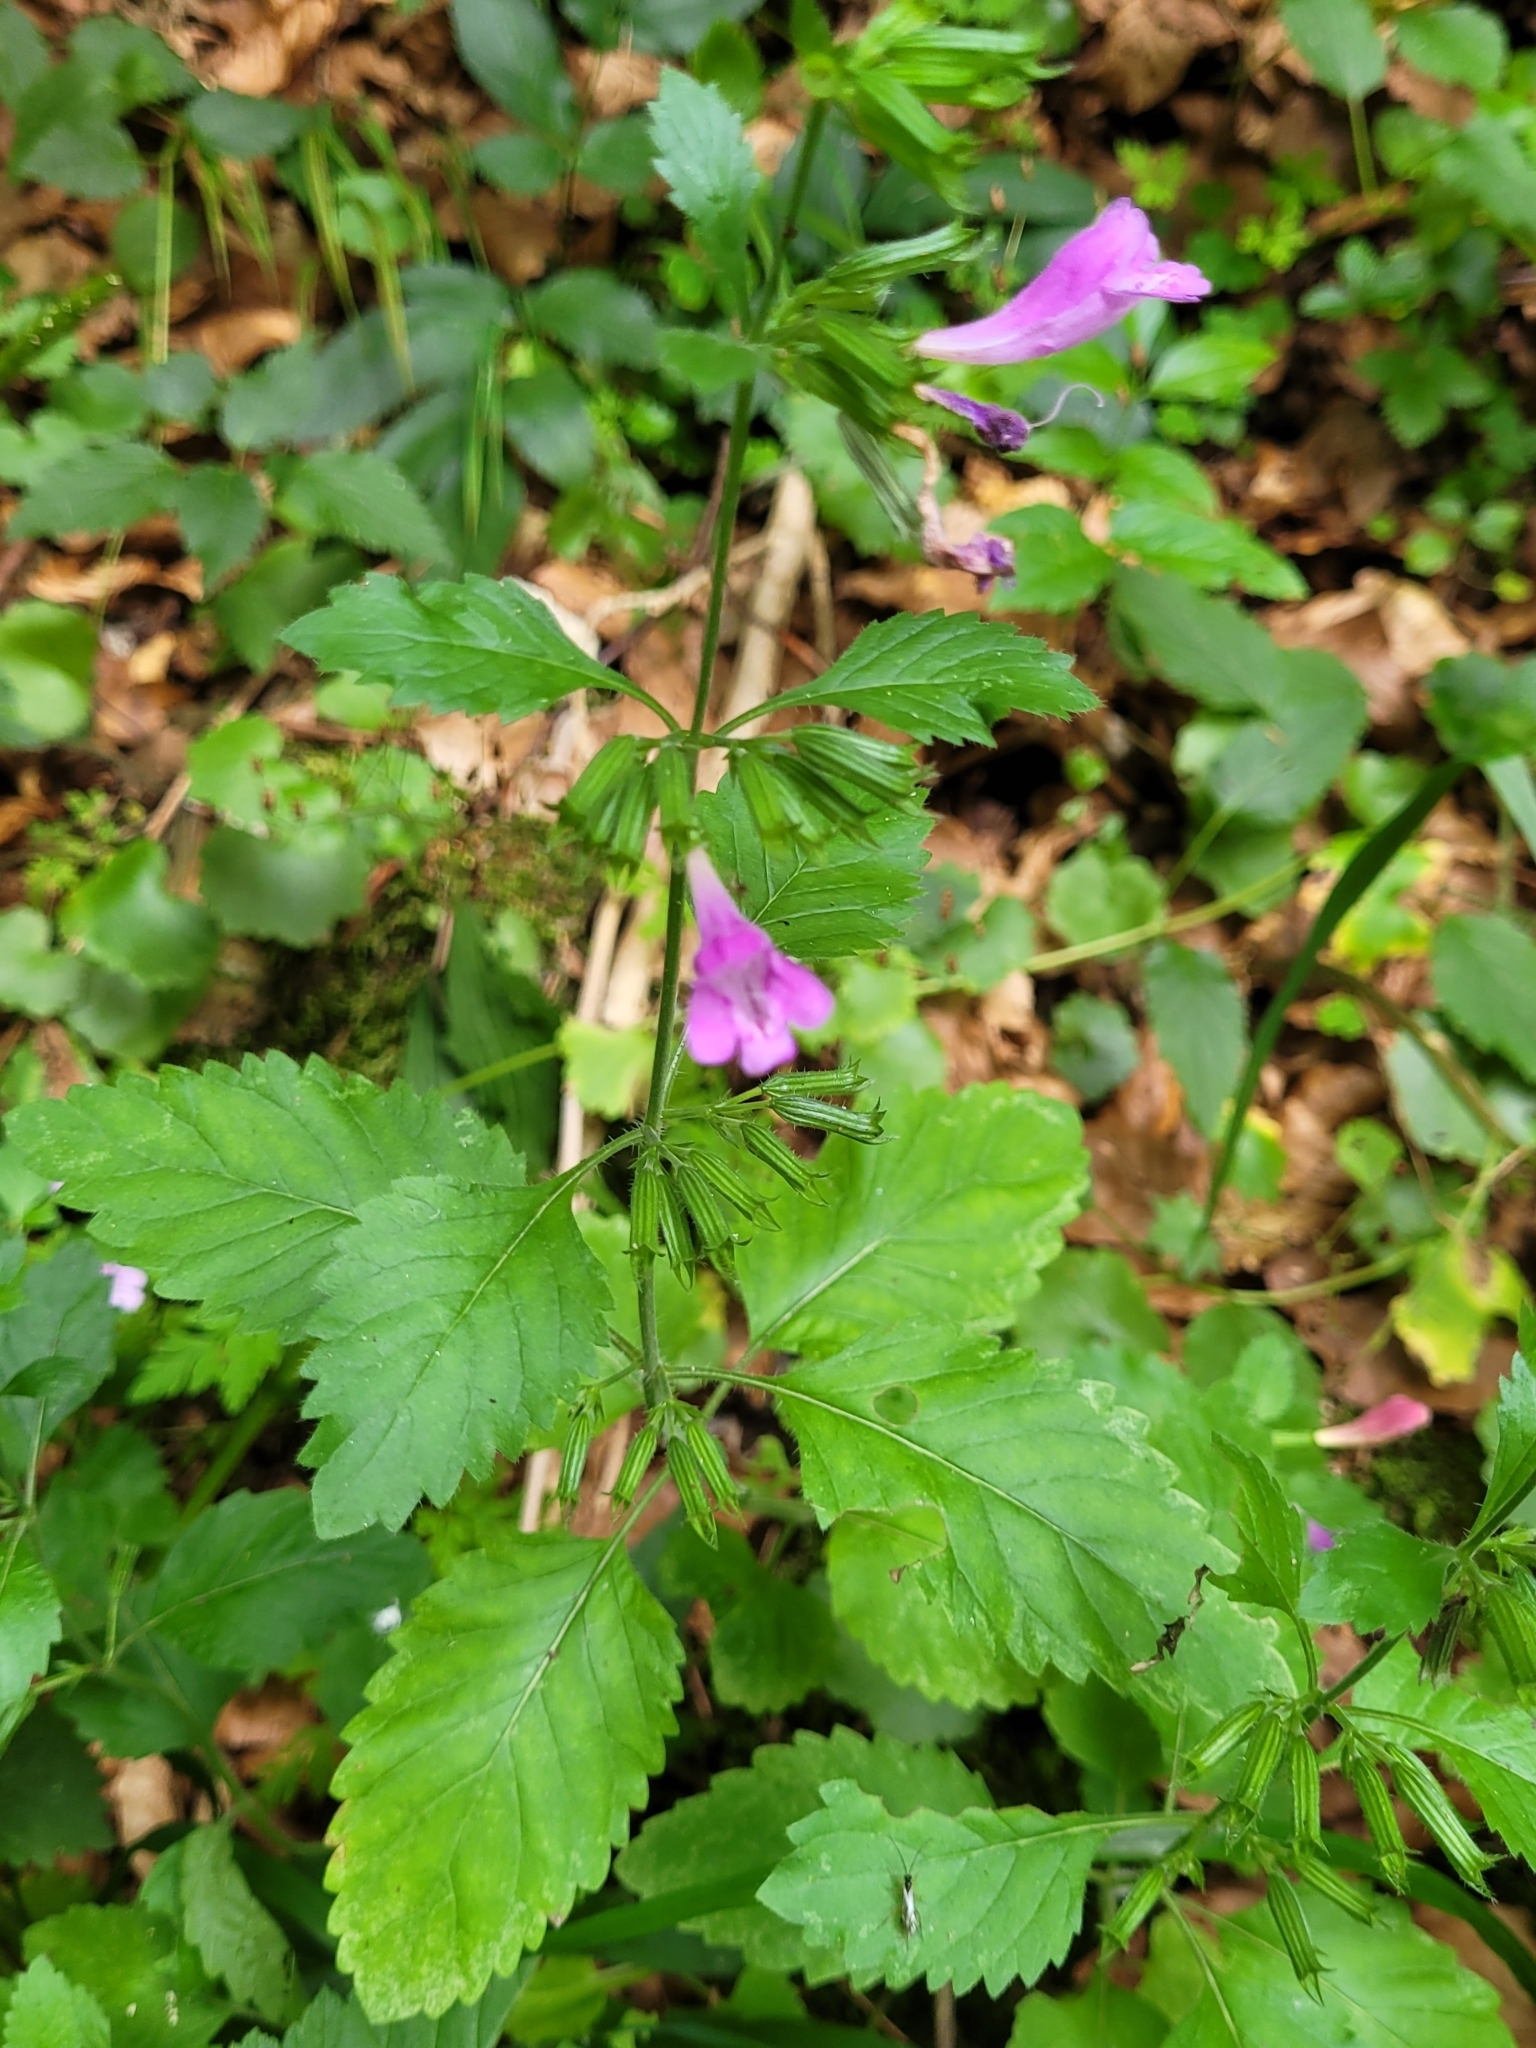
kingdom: Plantae
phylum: Tracheophyta
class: Magnoliopsida
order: Lamiales
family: Lamiaceae
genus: Clinopodium
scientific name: Clinopodium grandiflorum
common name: Greater calamint
